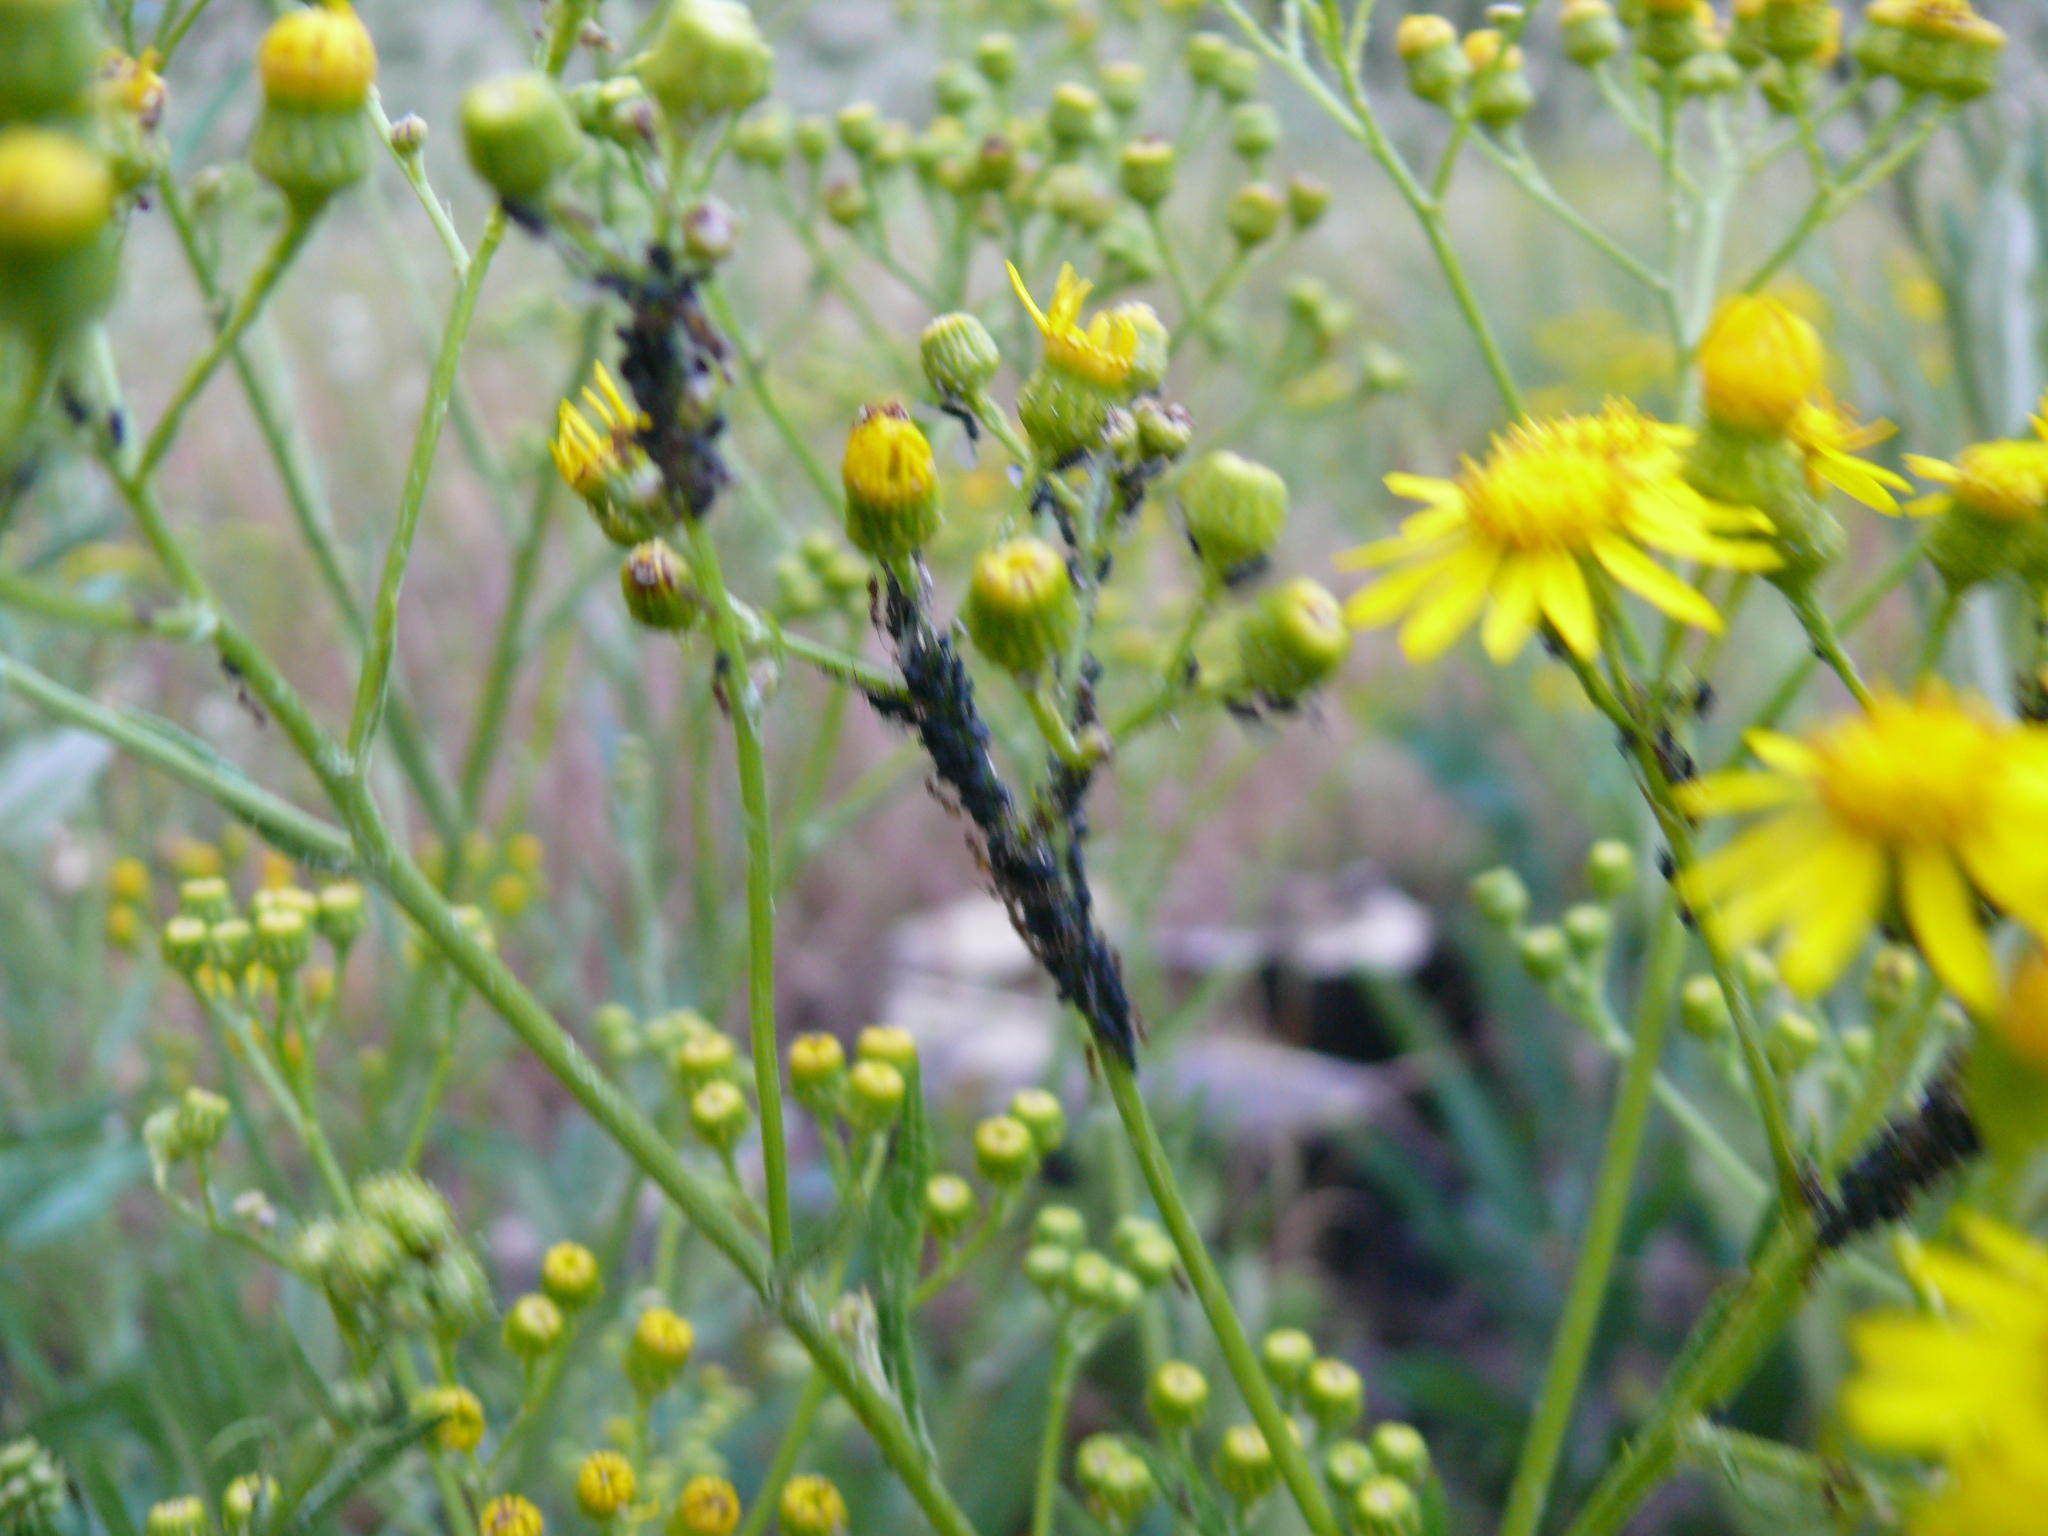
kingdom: Plantae
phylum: Tracheophyta
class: Magnoliopsida
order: Asterales
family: Asteraceae
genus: Senecio
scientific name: Senecio pterophorus
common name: Shoddy ragwort
